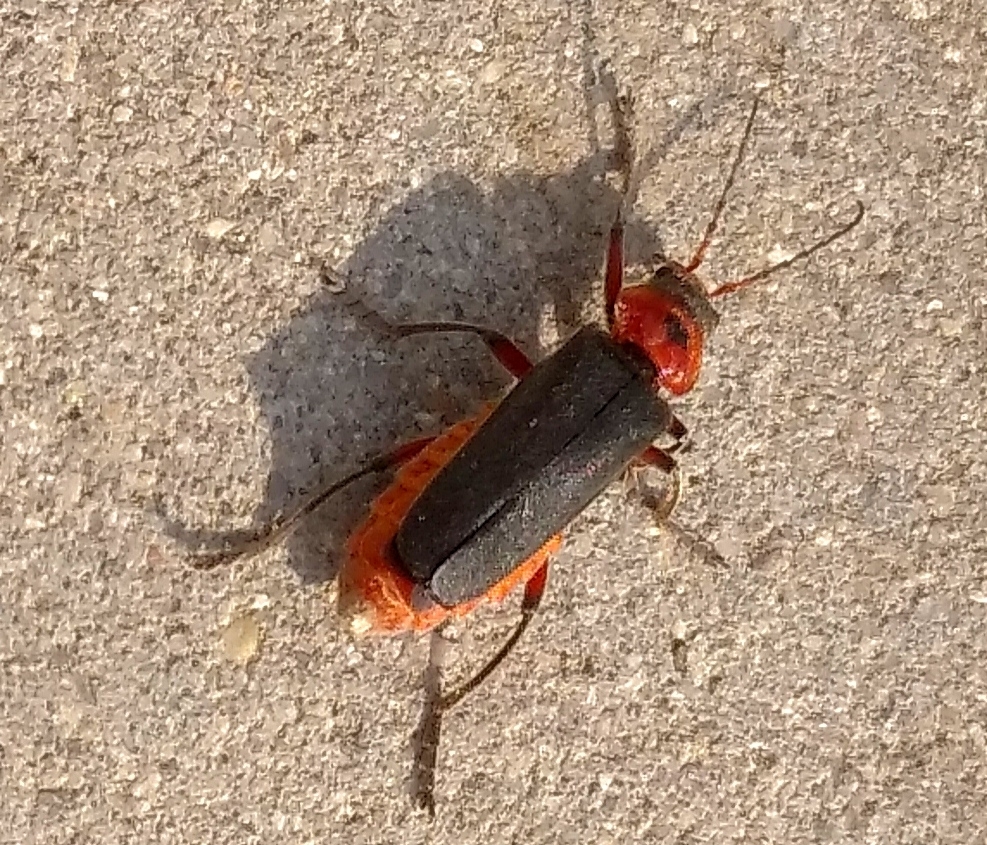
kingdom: Animalia
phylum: Arthropoda
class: Insecta
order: Coleoptera
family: Cantharidae
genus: Cantharis
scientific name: Cantharis rustica
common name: Soldier beetle
